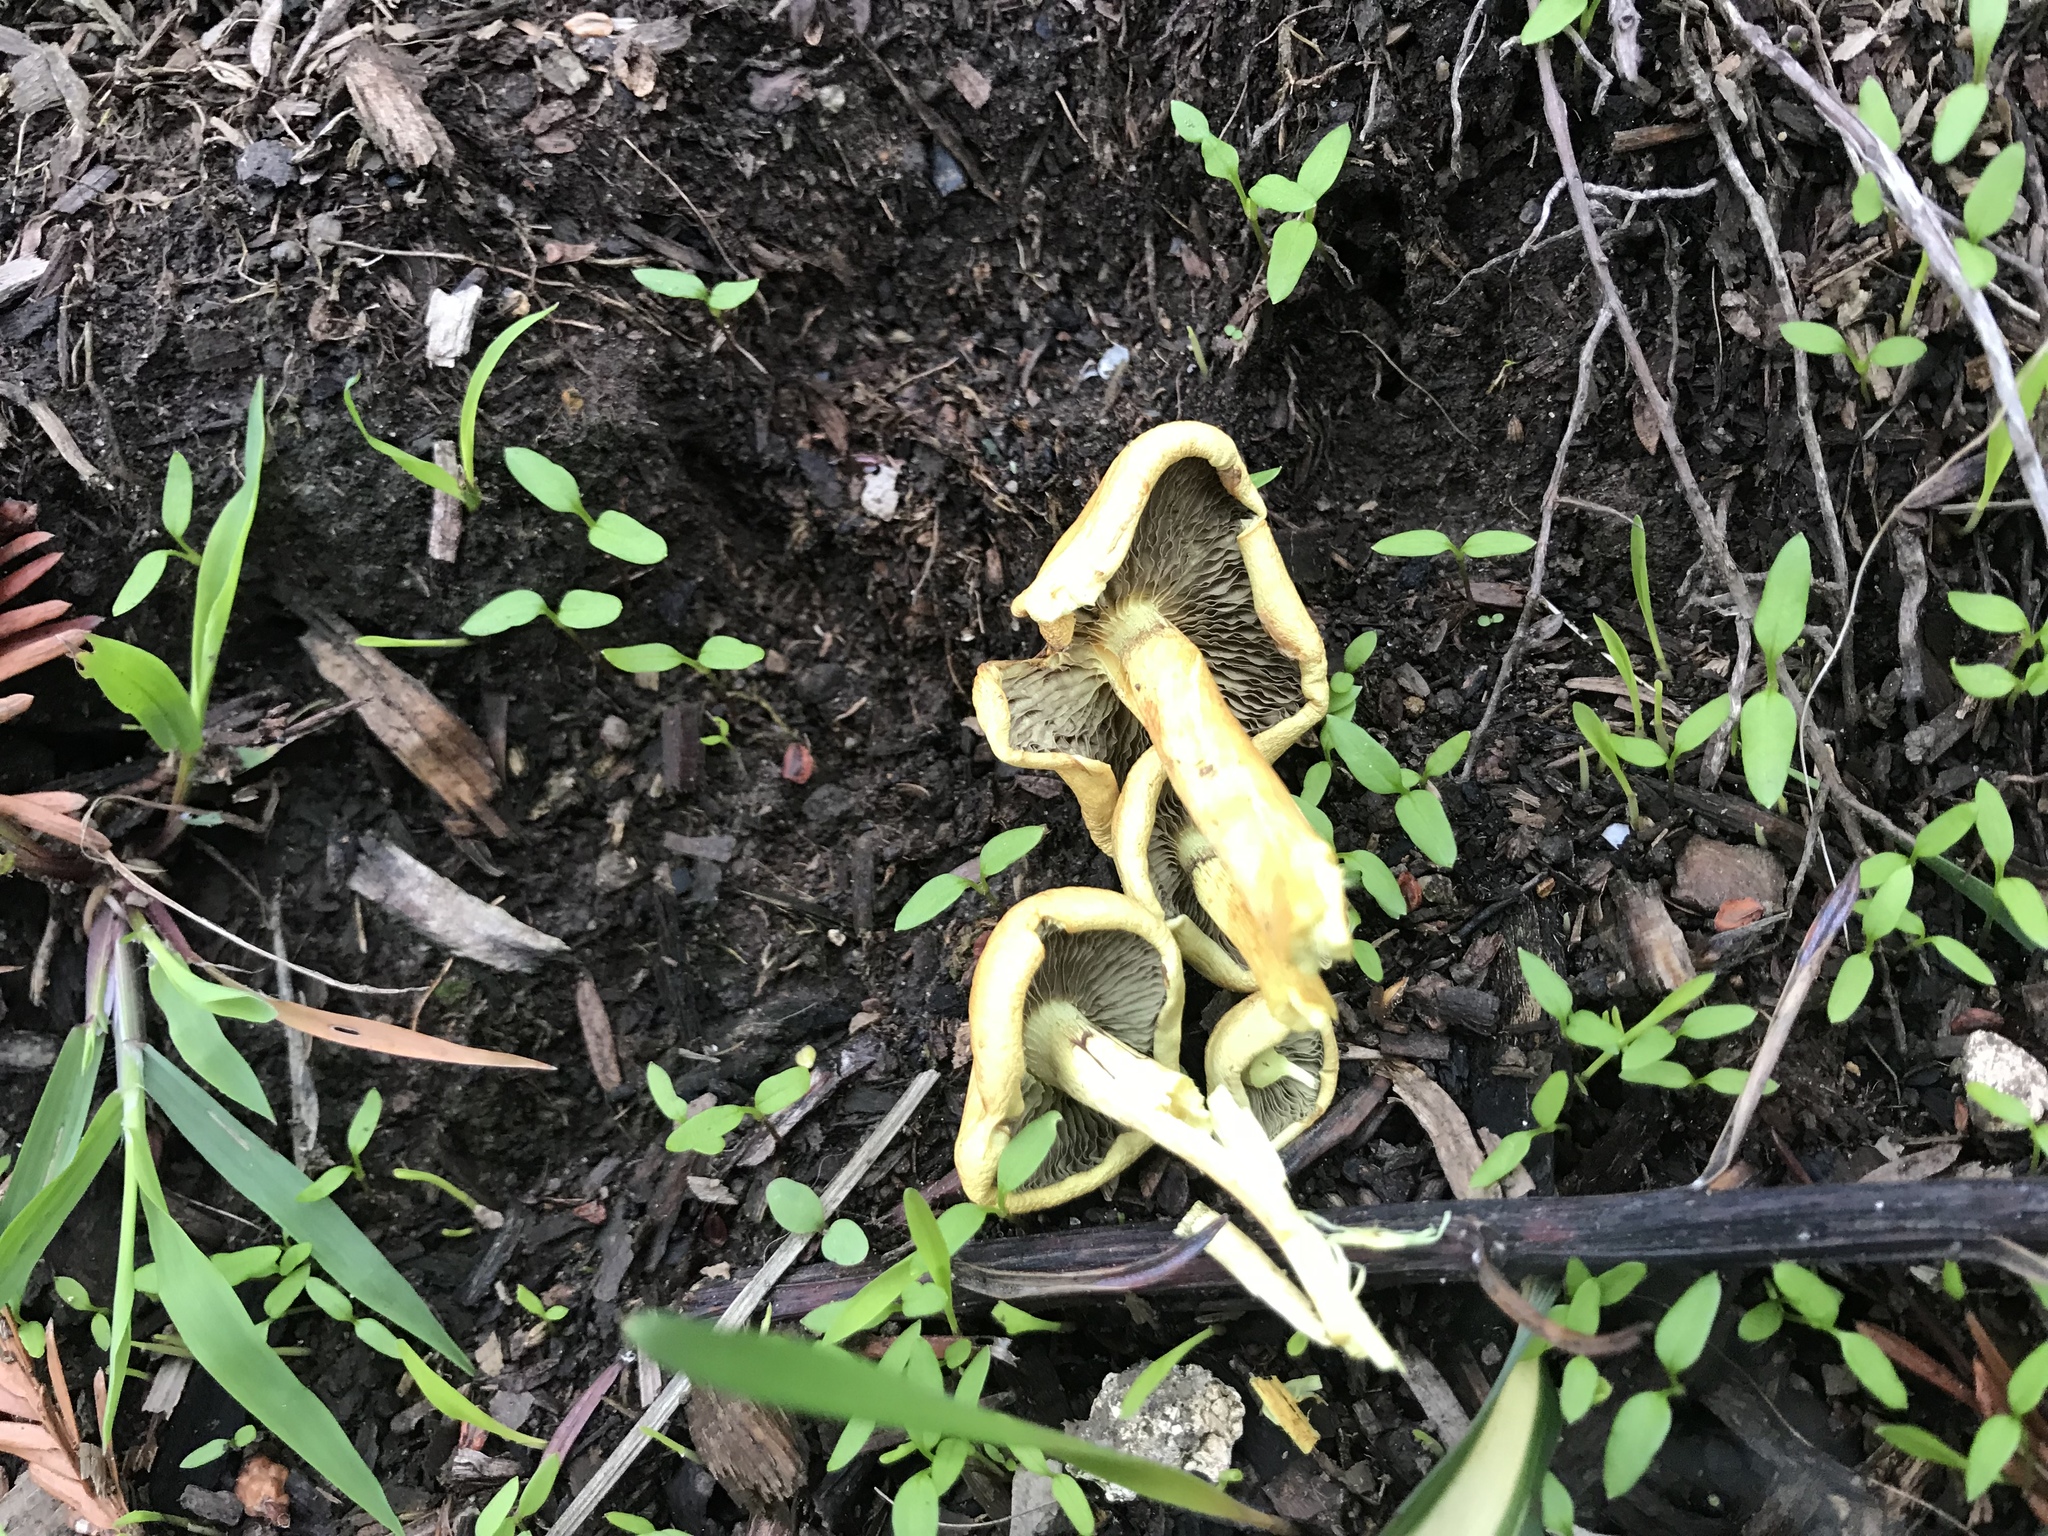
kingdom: Fungi
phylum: Basidiomycota
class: Agaricomycetes
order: Agaricales
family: Strophariaceae
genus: Hypholoma
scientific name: Hypholoma fasciculare
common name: Sulphur tuft
